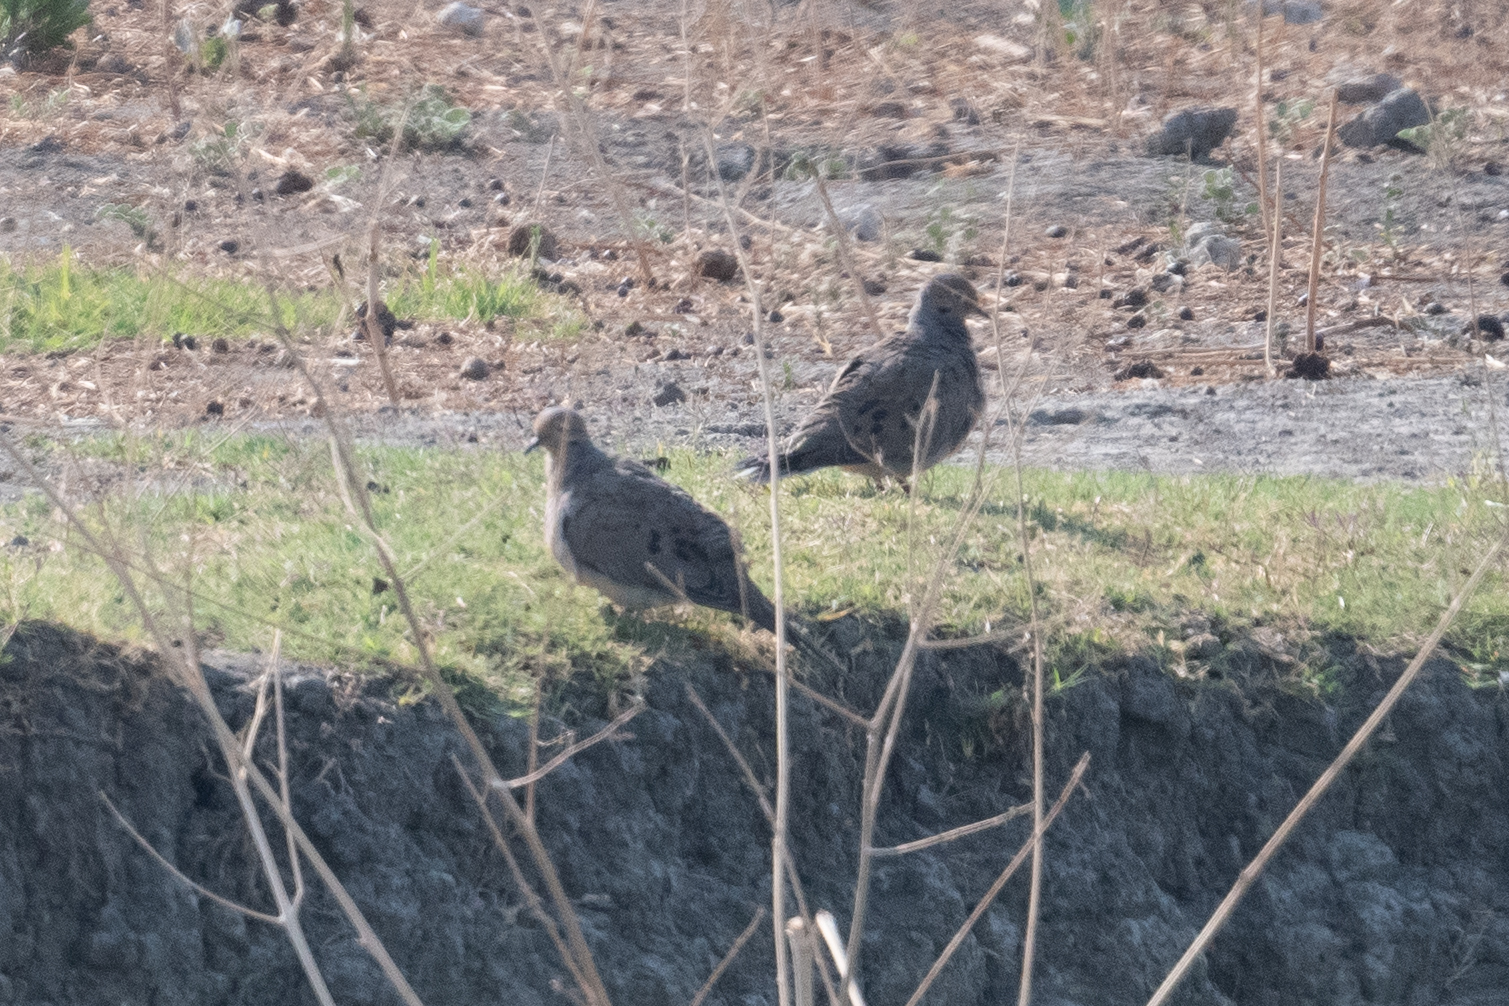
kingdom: Animalia
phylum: Chordata
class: Aves
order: Columbiformes
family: Columbidae
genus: Zenaida
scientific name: Zenaida macroura
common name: Mourning dove
